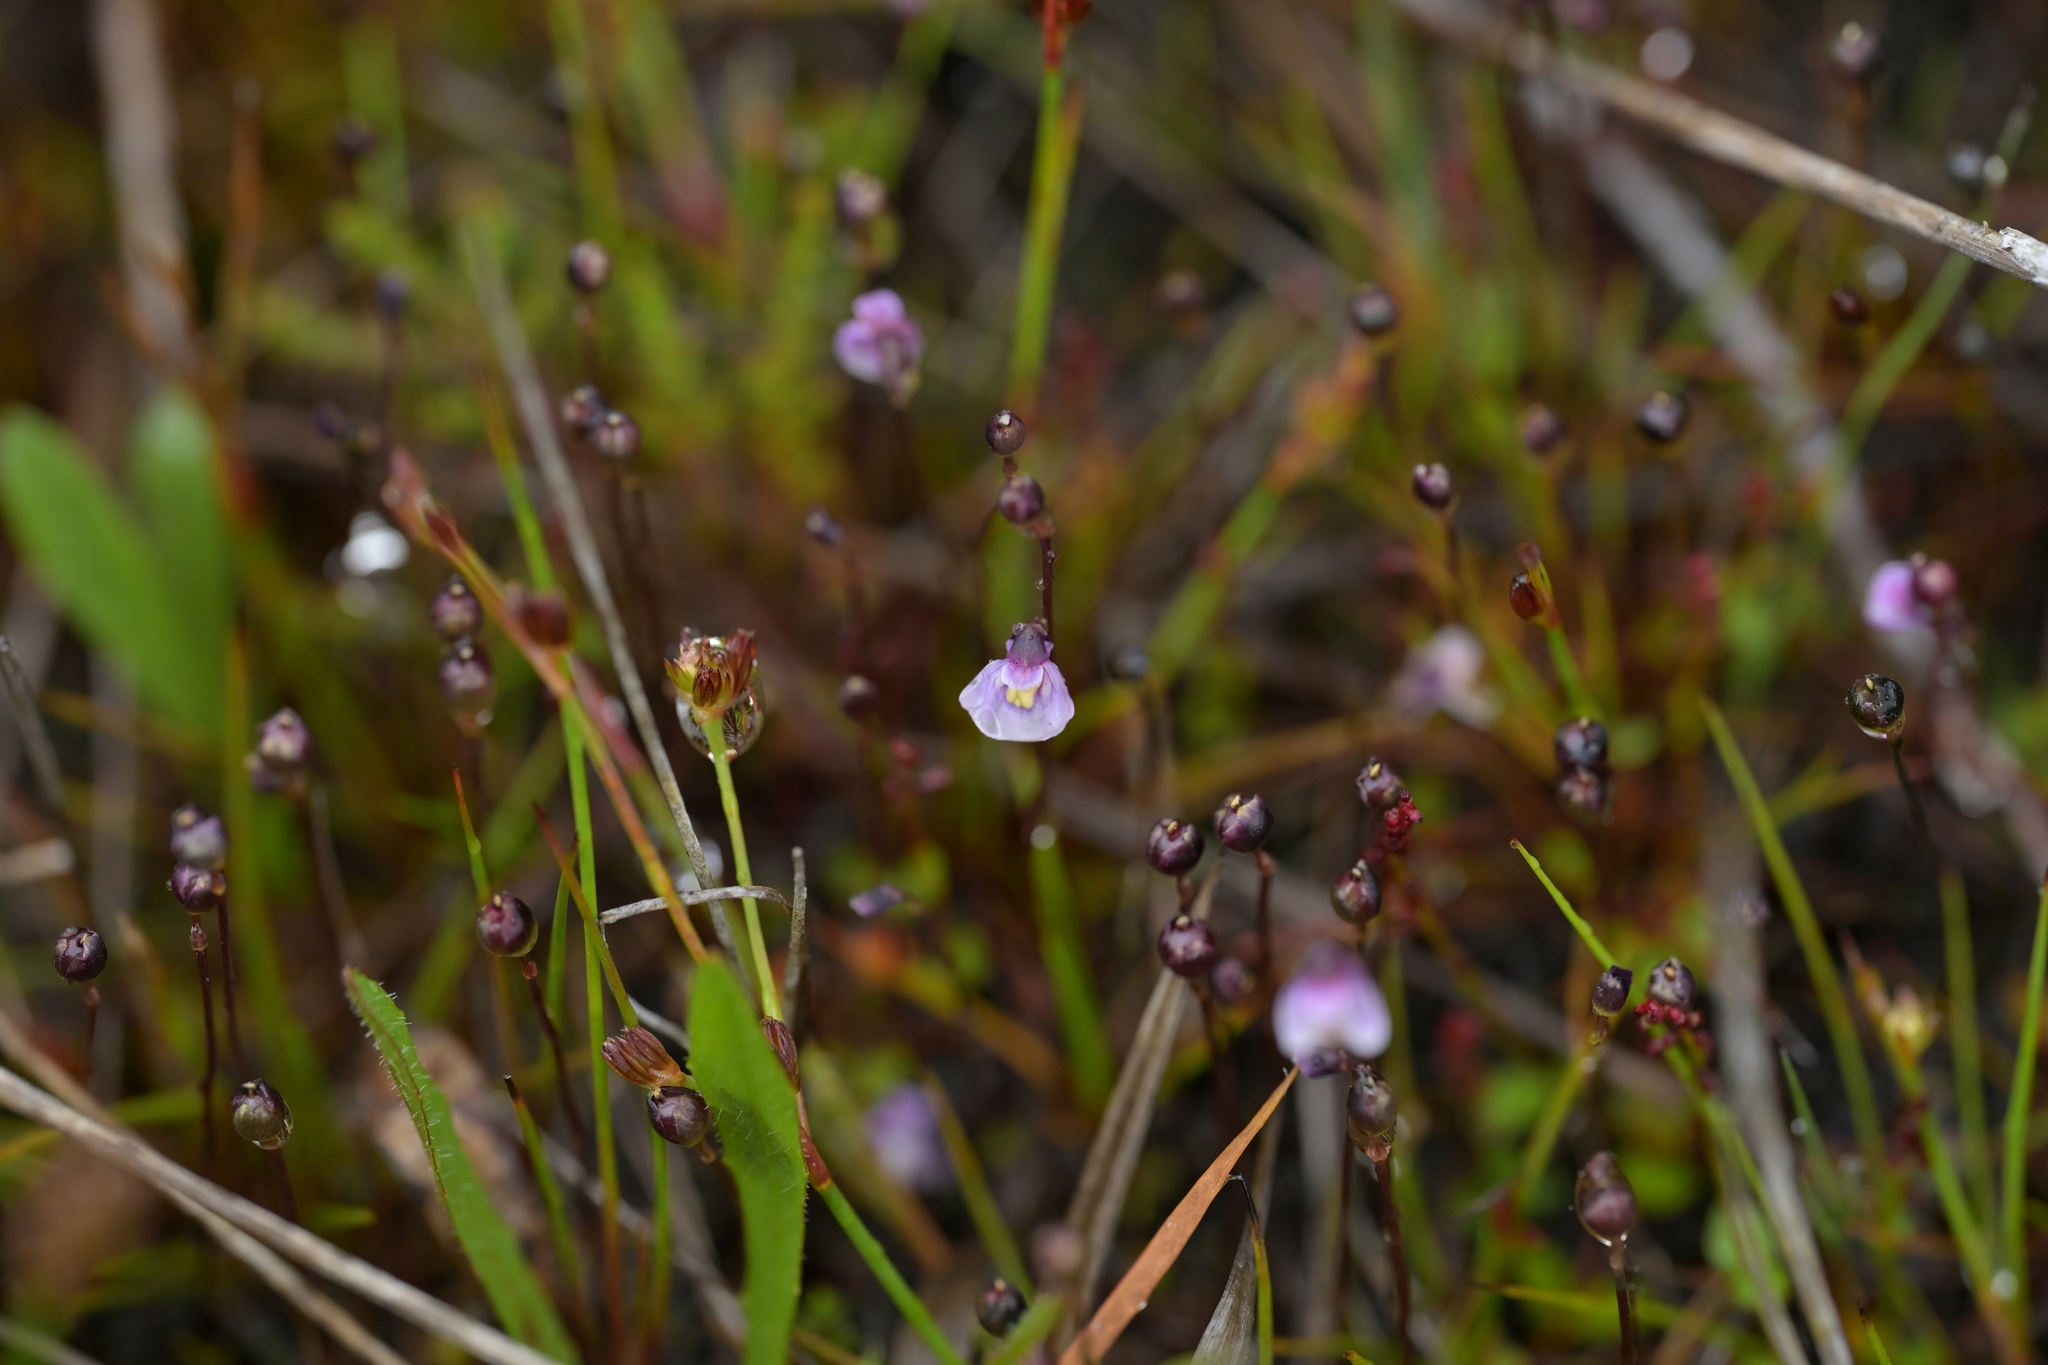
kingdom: Plantae
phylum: Tracheophyta
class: Magnoliopsida
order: Lamiales
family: Lentibulariaceae
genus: Utricularia
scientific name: Utricularia dichotoma
